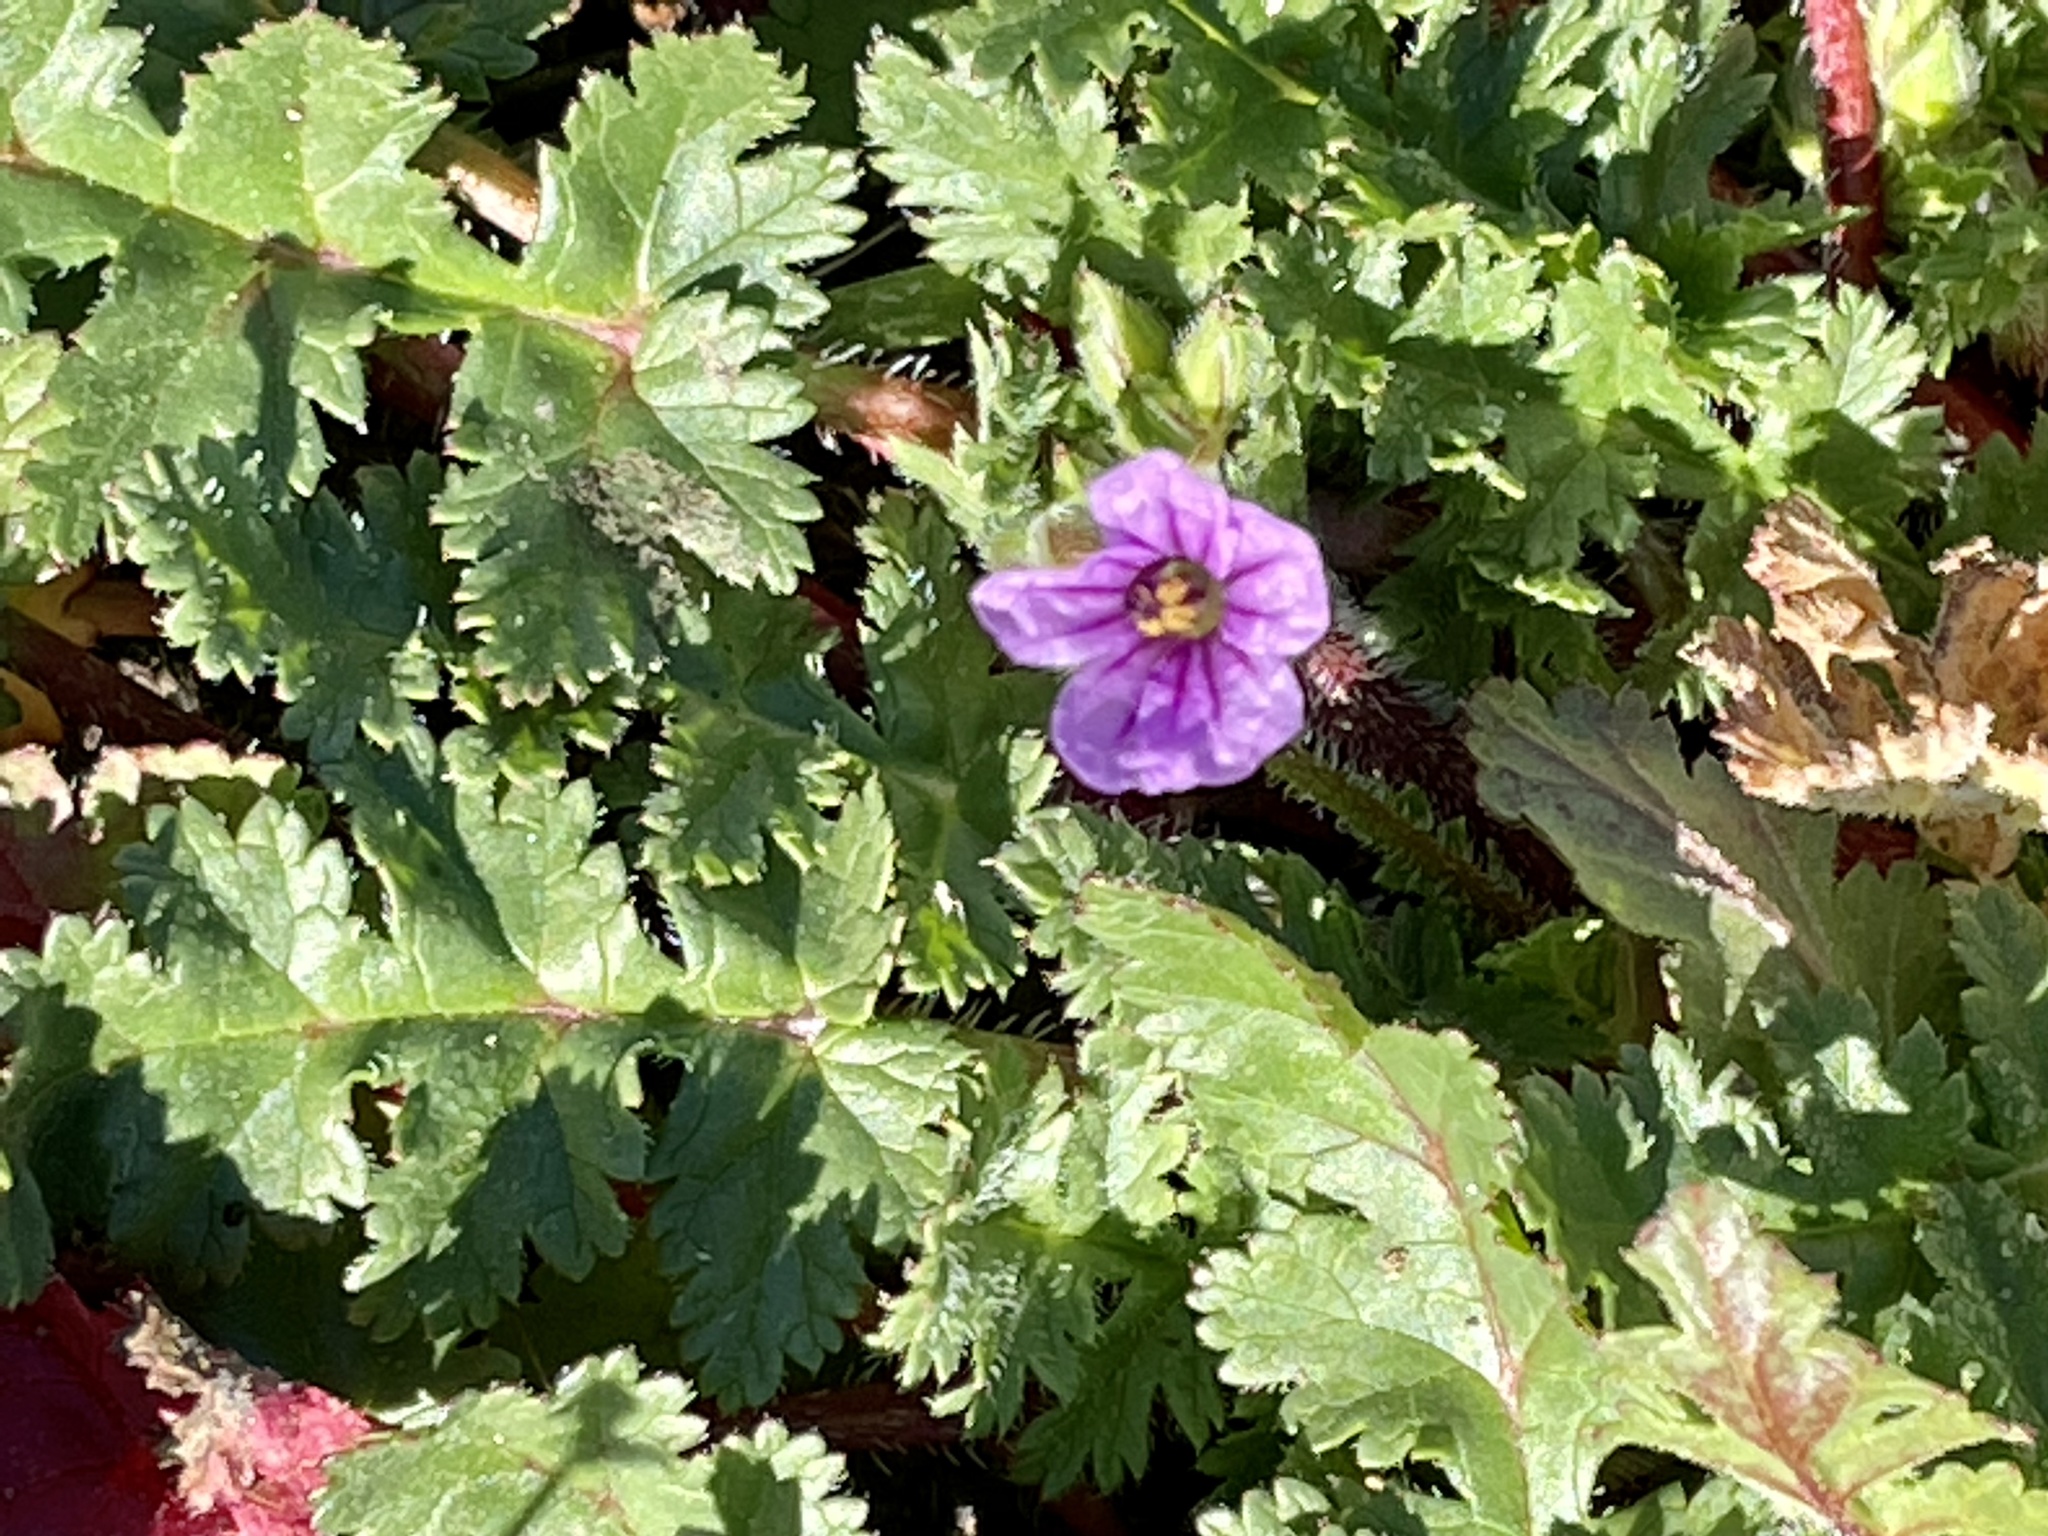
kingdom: Plantae
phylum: Tracheophyta
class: Magnoliopsida
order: Geraniales
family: Geraniaceae
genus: Erodium
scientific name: Erodium botrys
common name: Mediterranean stork's-bill
